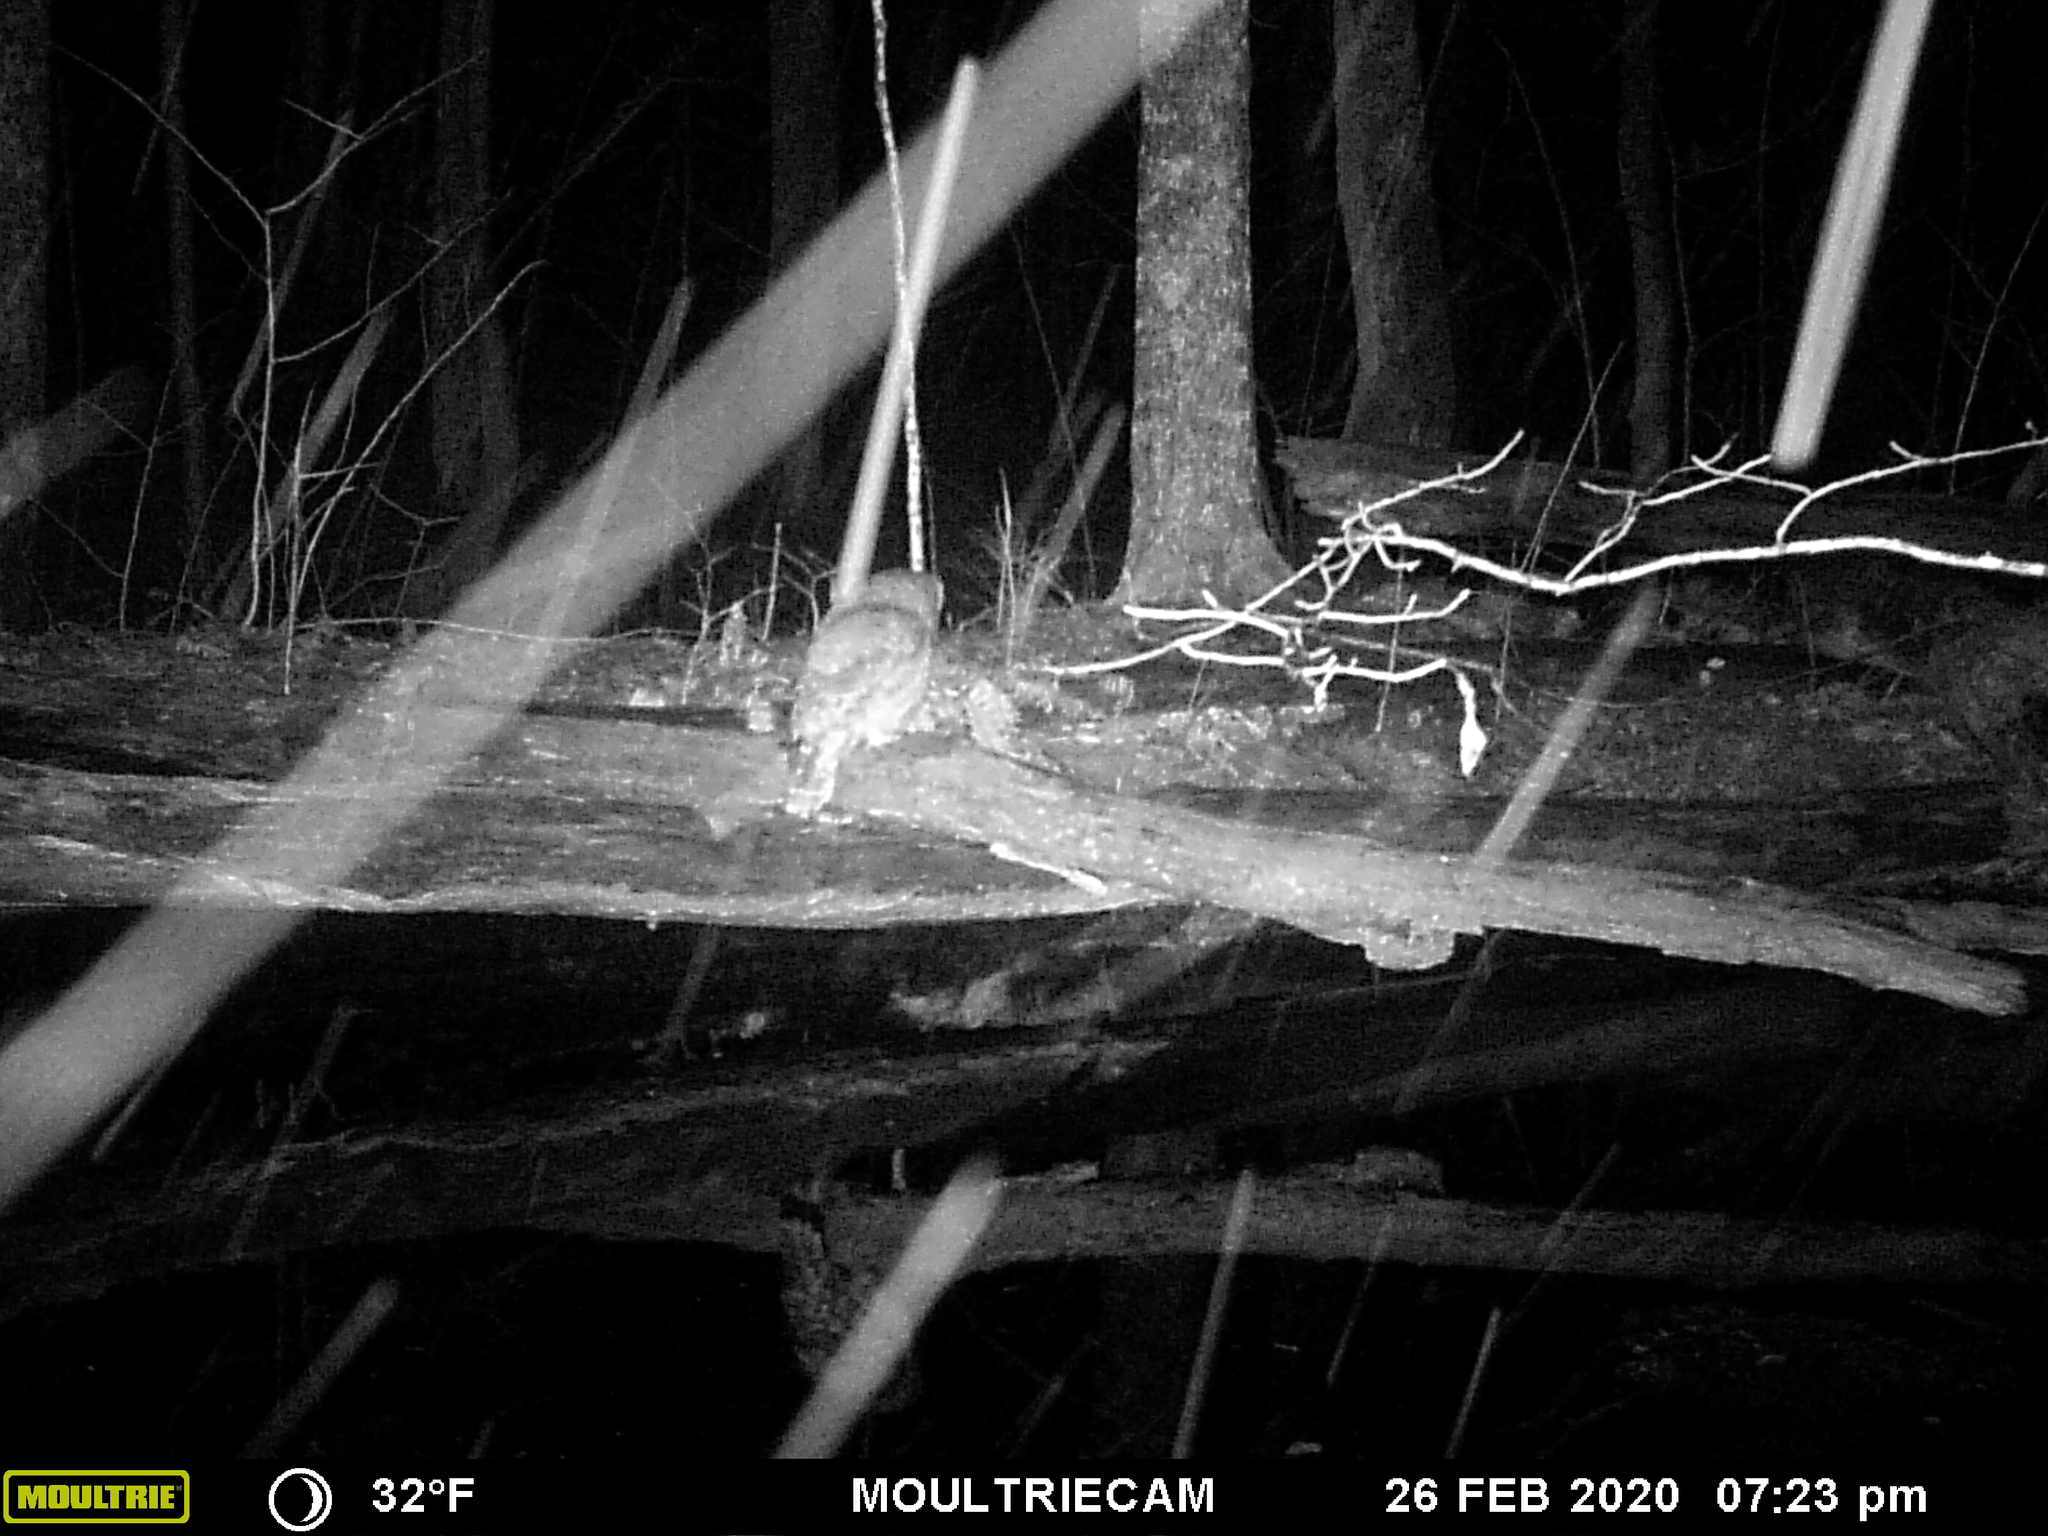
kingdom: Animalia
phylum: Chordata
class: Aves
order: Strigiformes
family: Strigidae
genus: Strix
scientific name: Strix varia
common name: Barred owl
